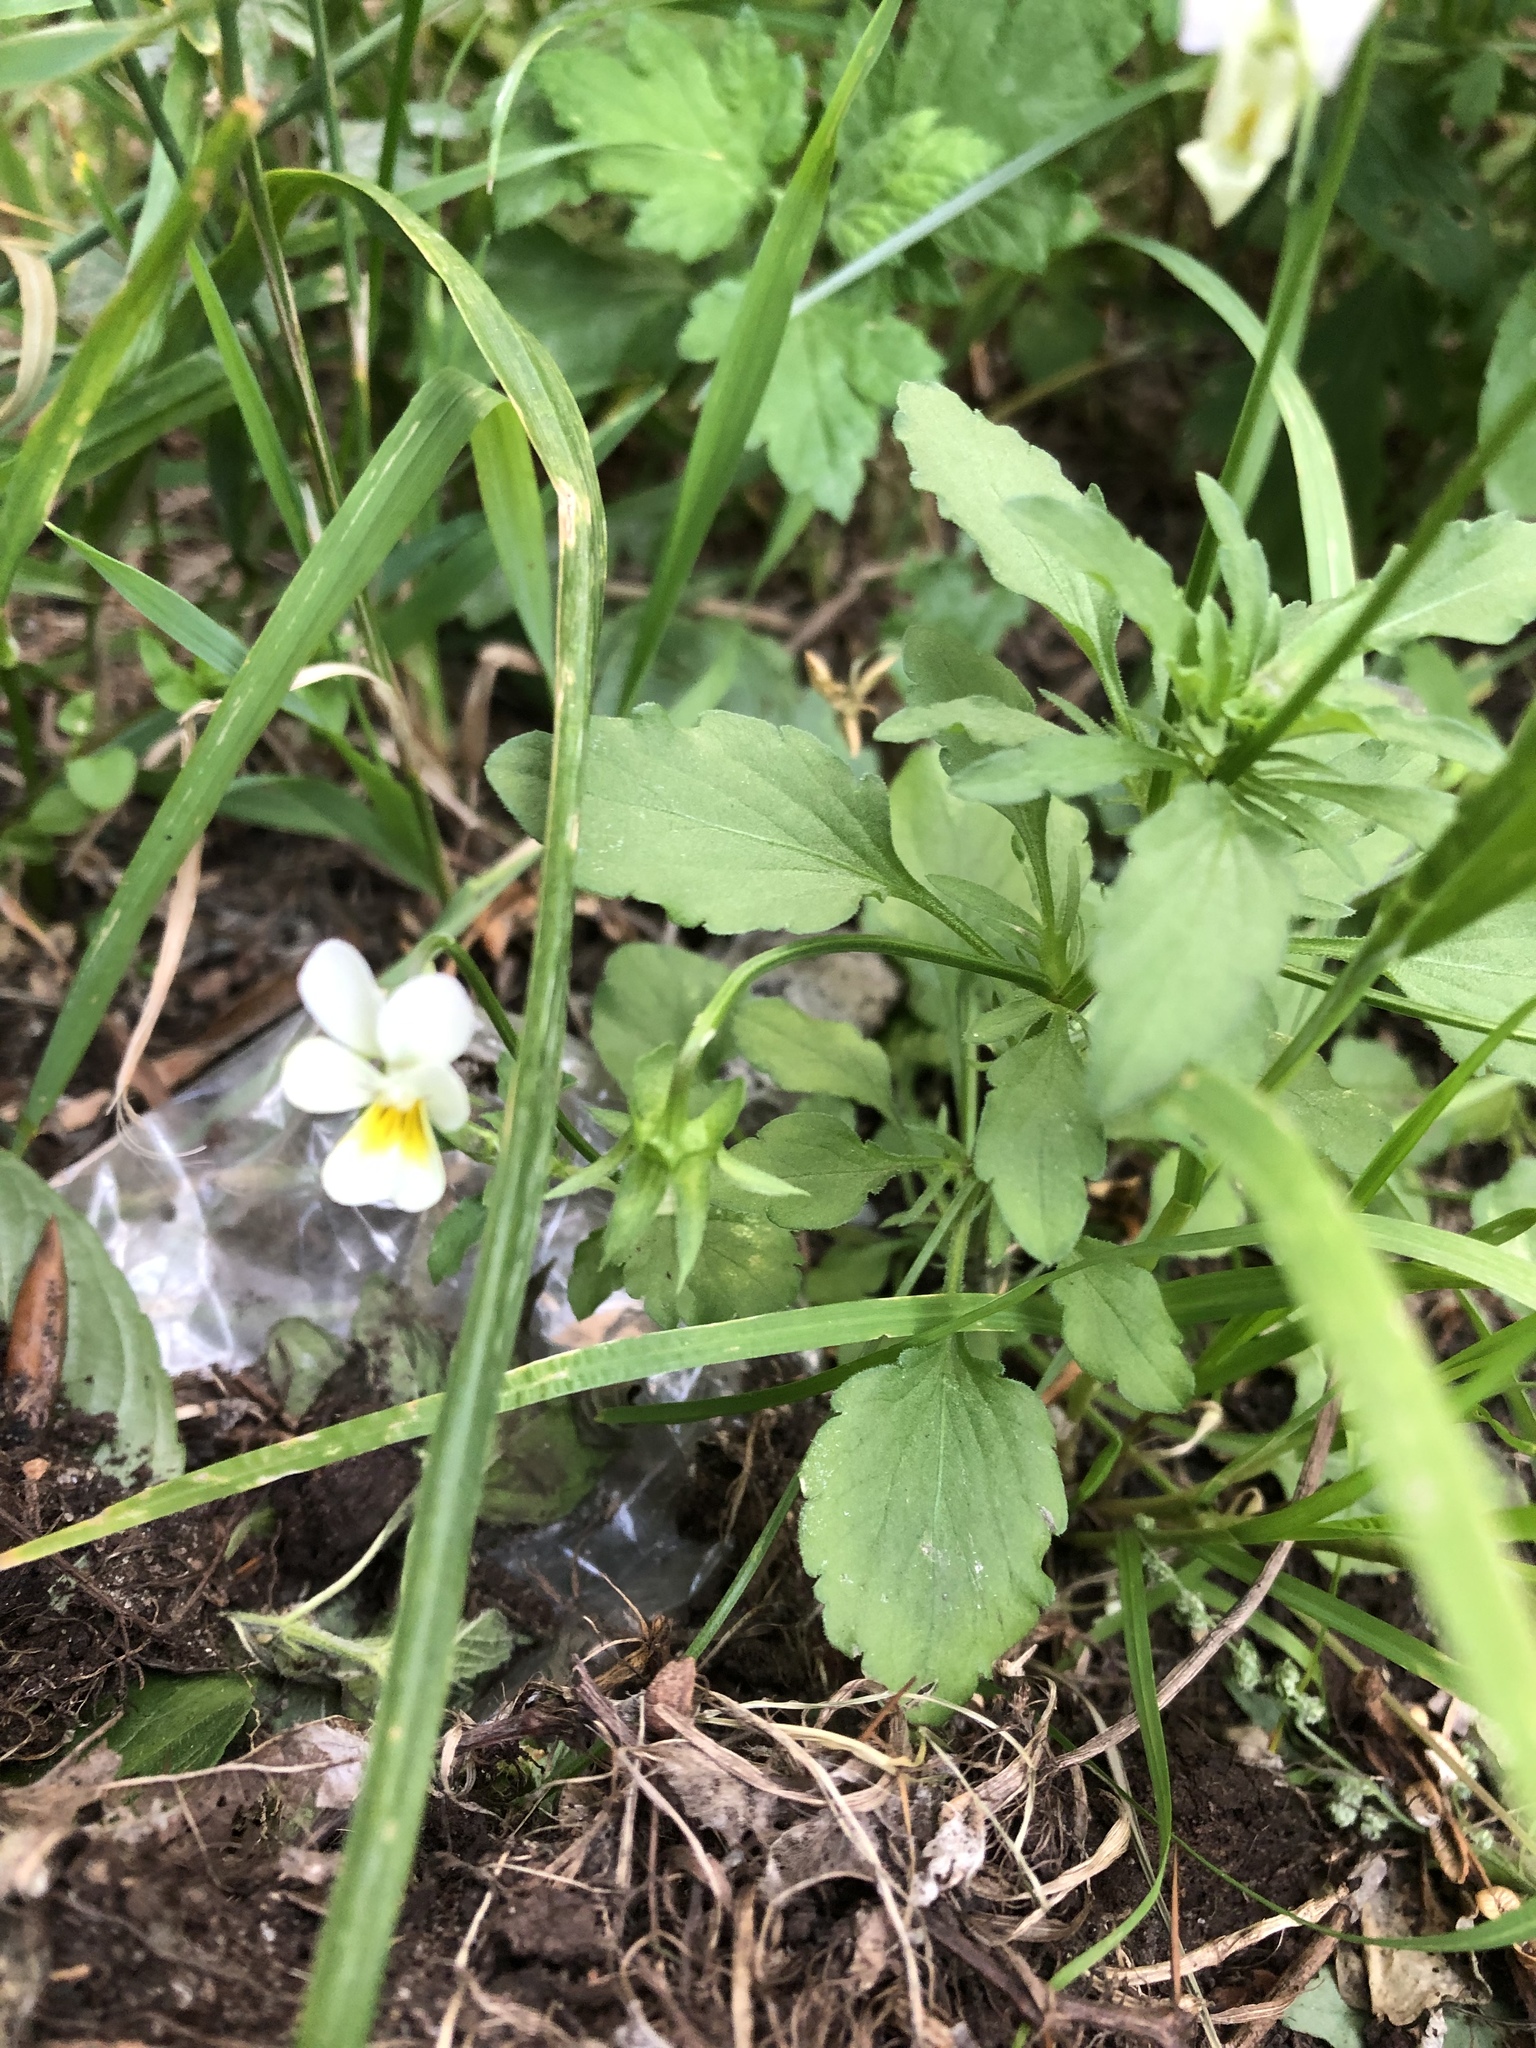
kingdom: Plantae
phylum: Tracheophyta
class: Magnoliopsida
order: Malpighiales
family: Violaceae
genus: Viola
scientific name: Viola arvensis
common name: Field pansy
